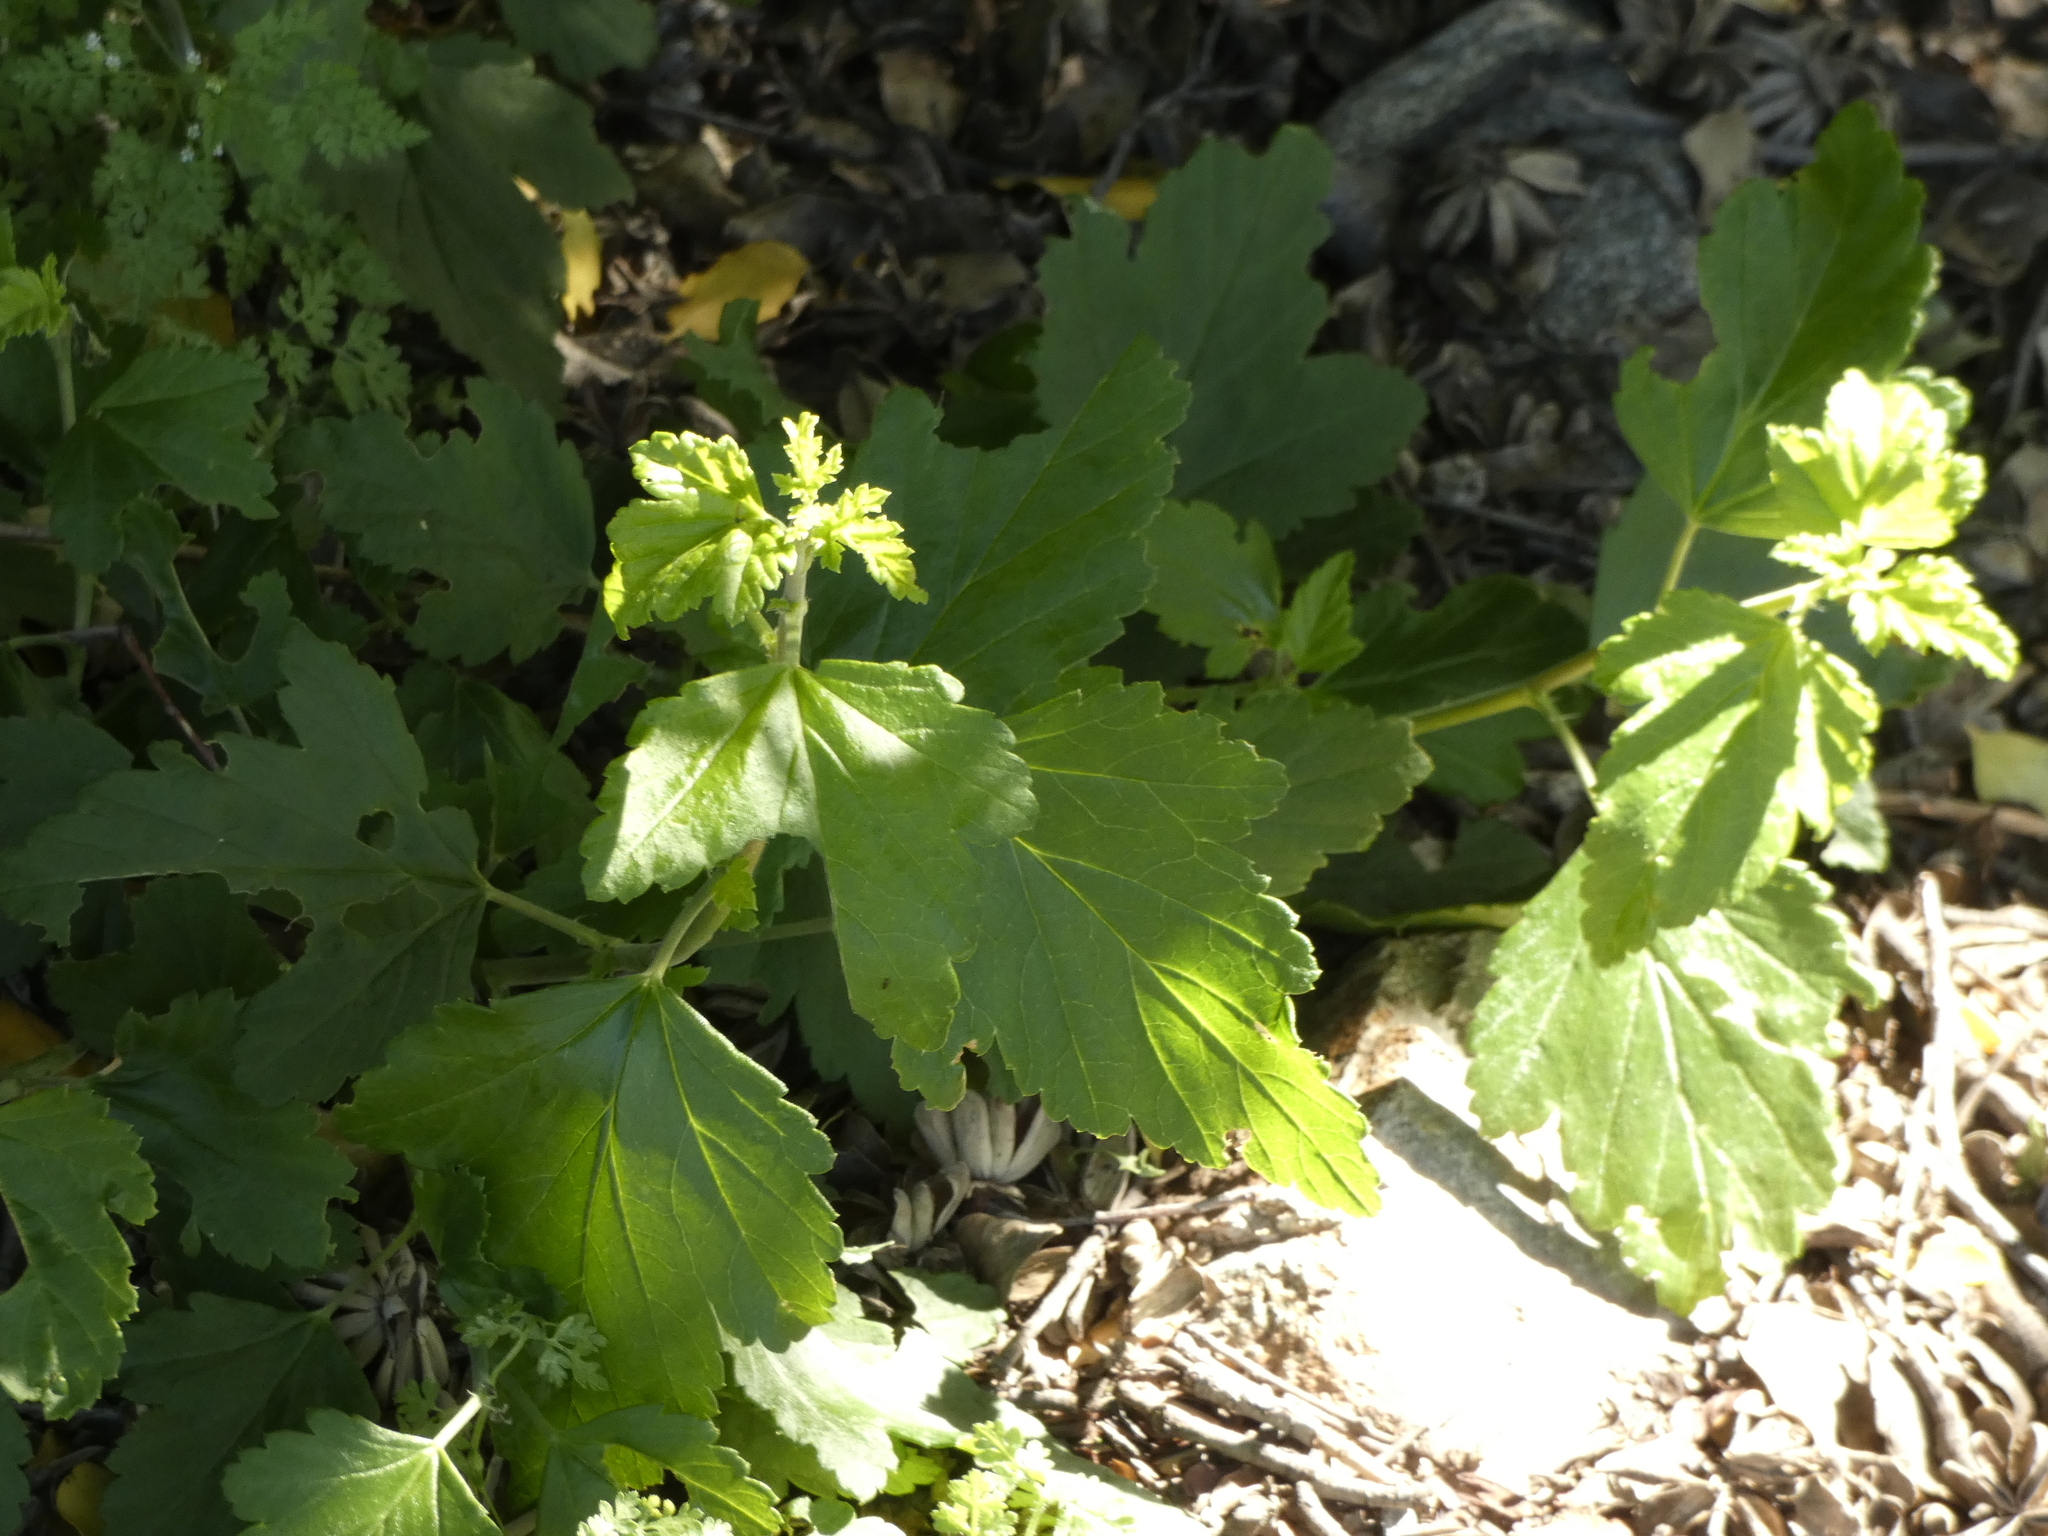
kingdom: Plantae
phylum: Tracheophyta
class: Magnoliopsida
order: Saxifragales
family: Grossulariaceae
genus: Ribes
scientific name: Ribes magellanicum
